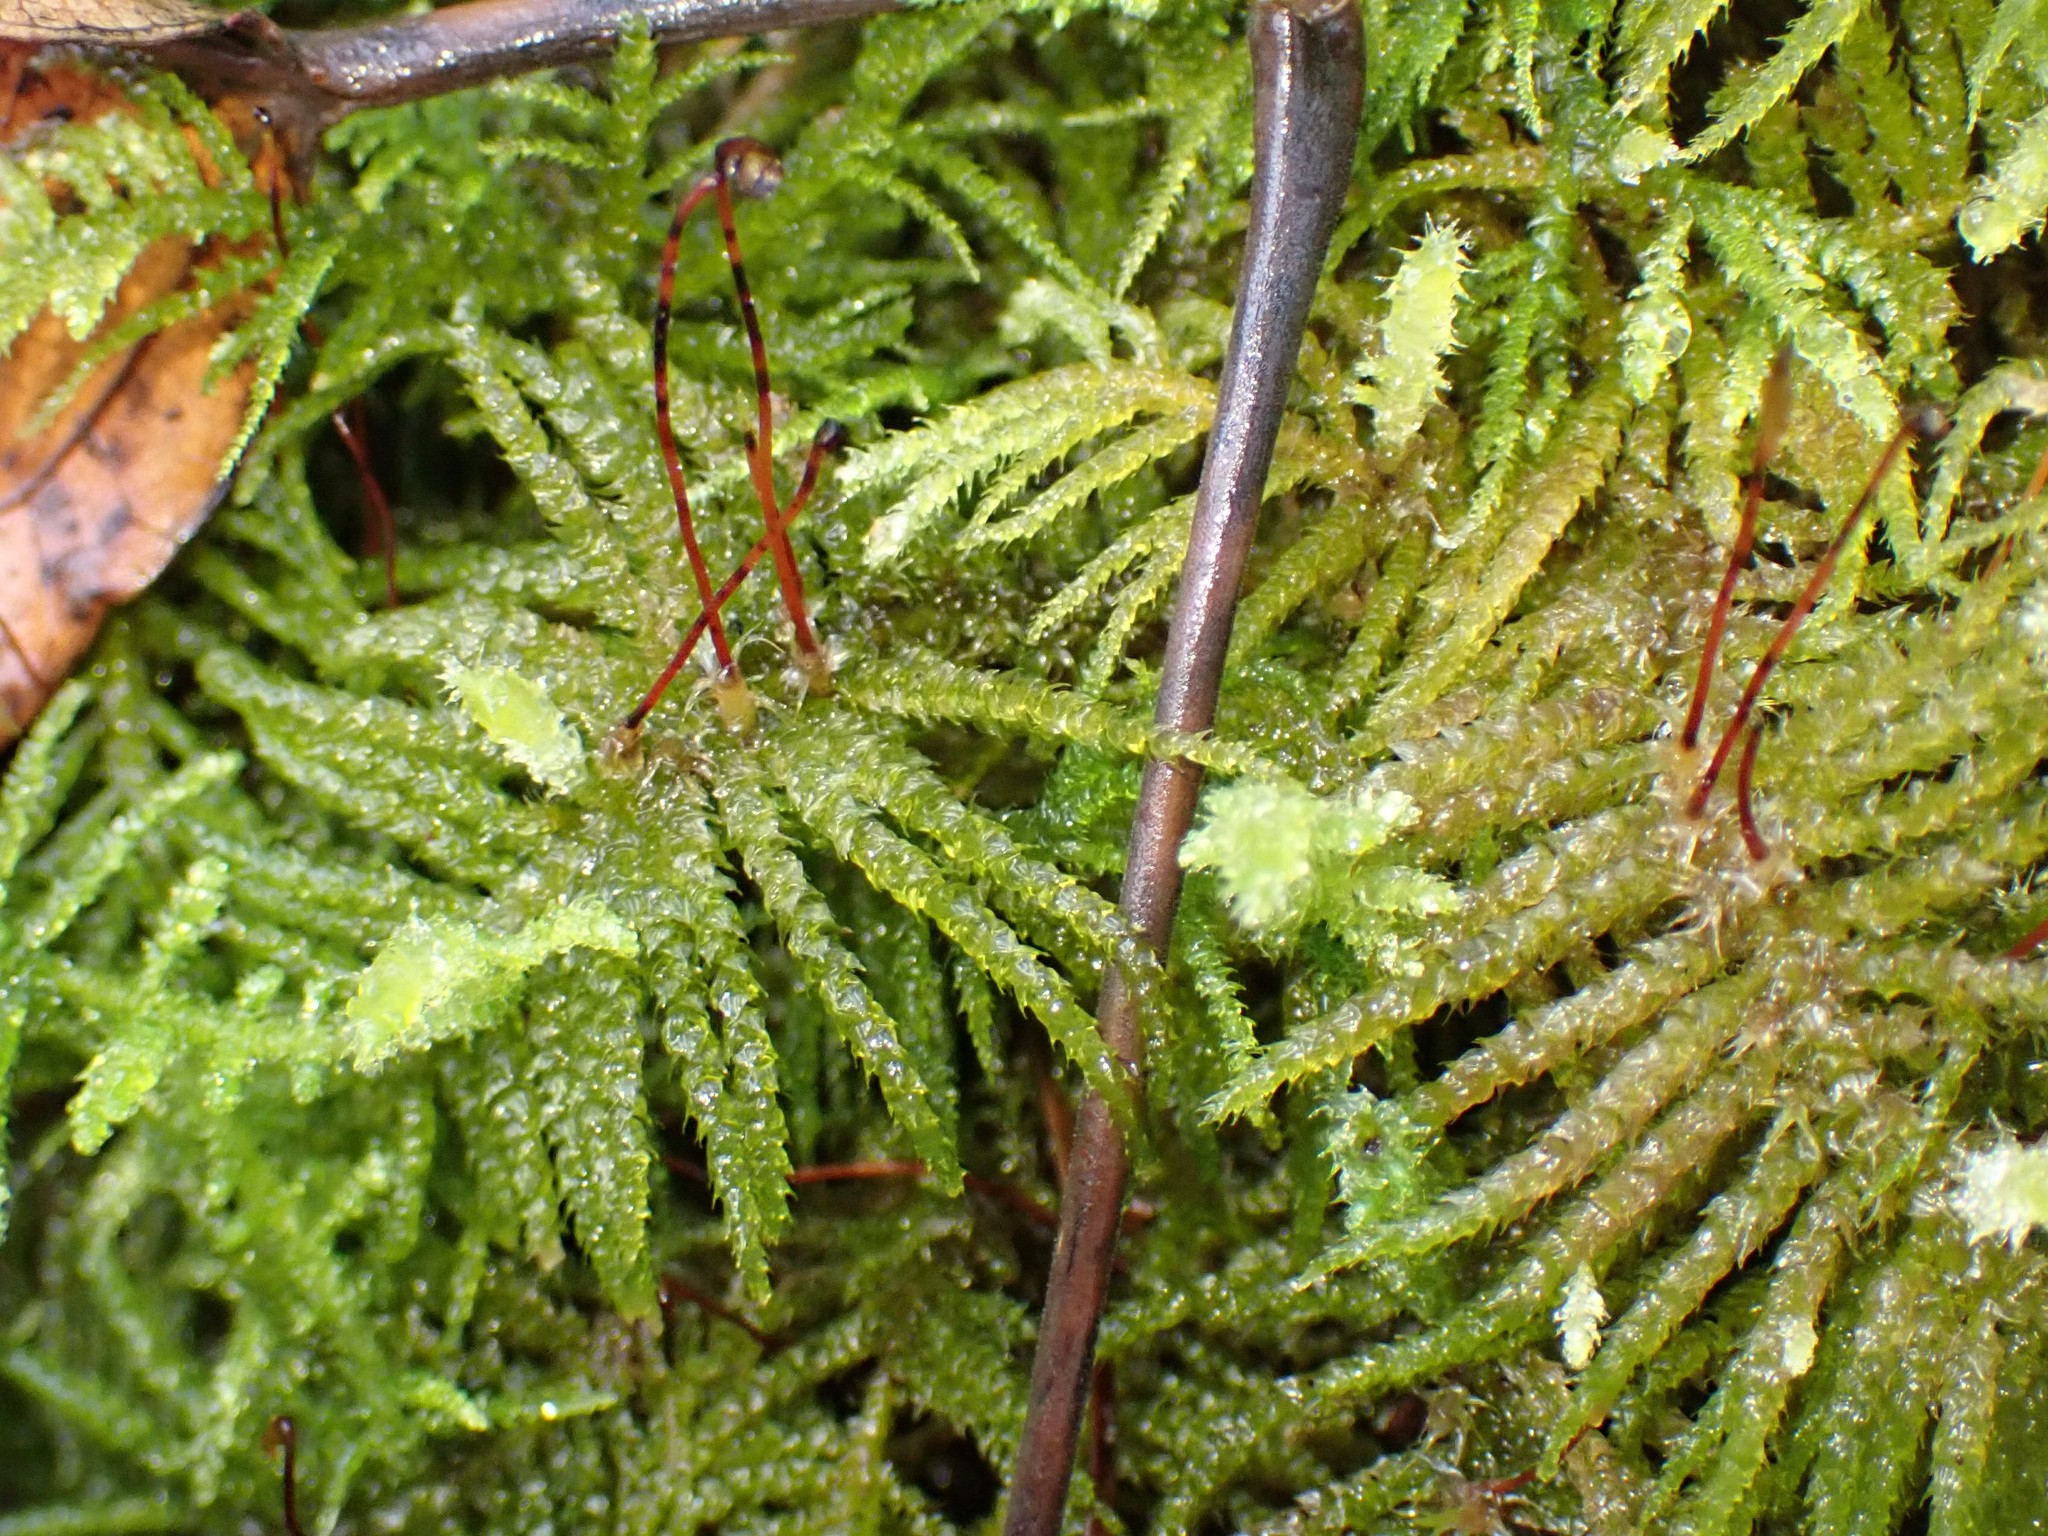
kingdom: Plantae
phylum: Bryophyta
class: Bryopsida
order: Hypnales
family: Brachytheciaceae
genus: Kindbergia
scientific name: Kindbergia oregana
